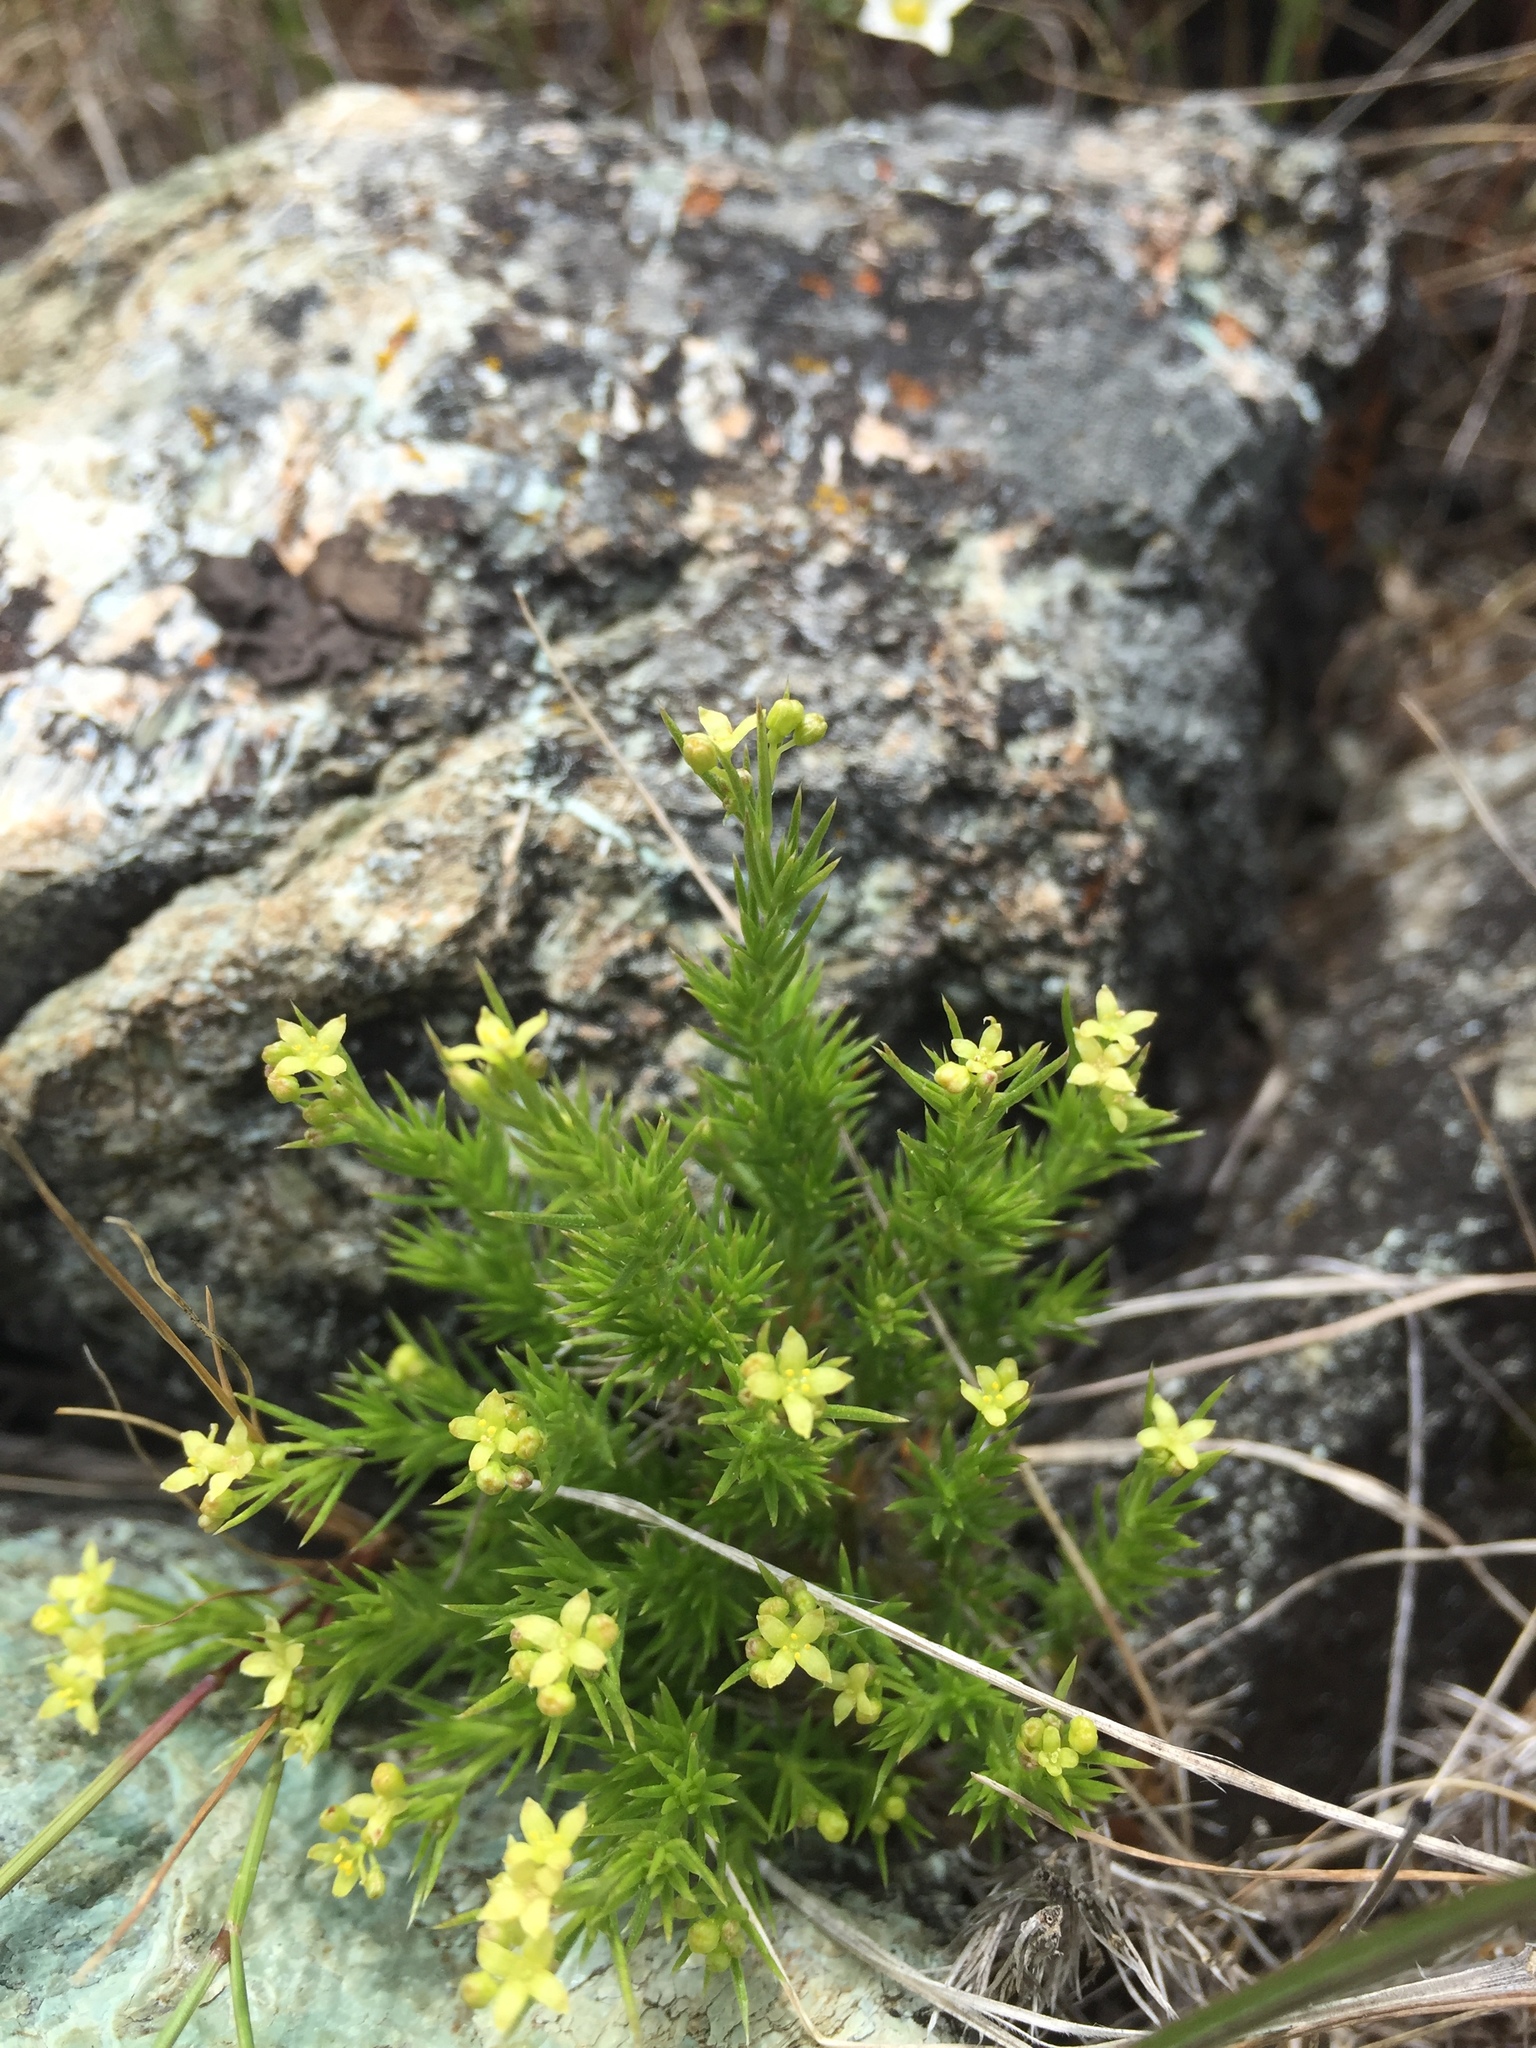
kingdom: Plantae
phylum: Tracheophyta
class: Magnoliopsida
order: Gentianales
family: Rubiaceae
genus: Galium
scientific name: Galium andrewsii
